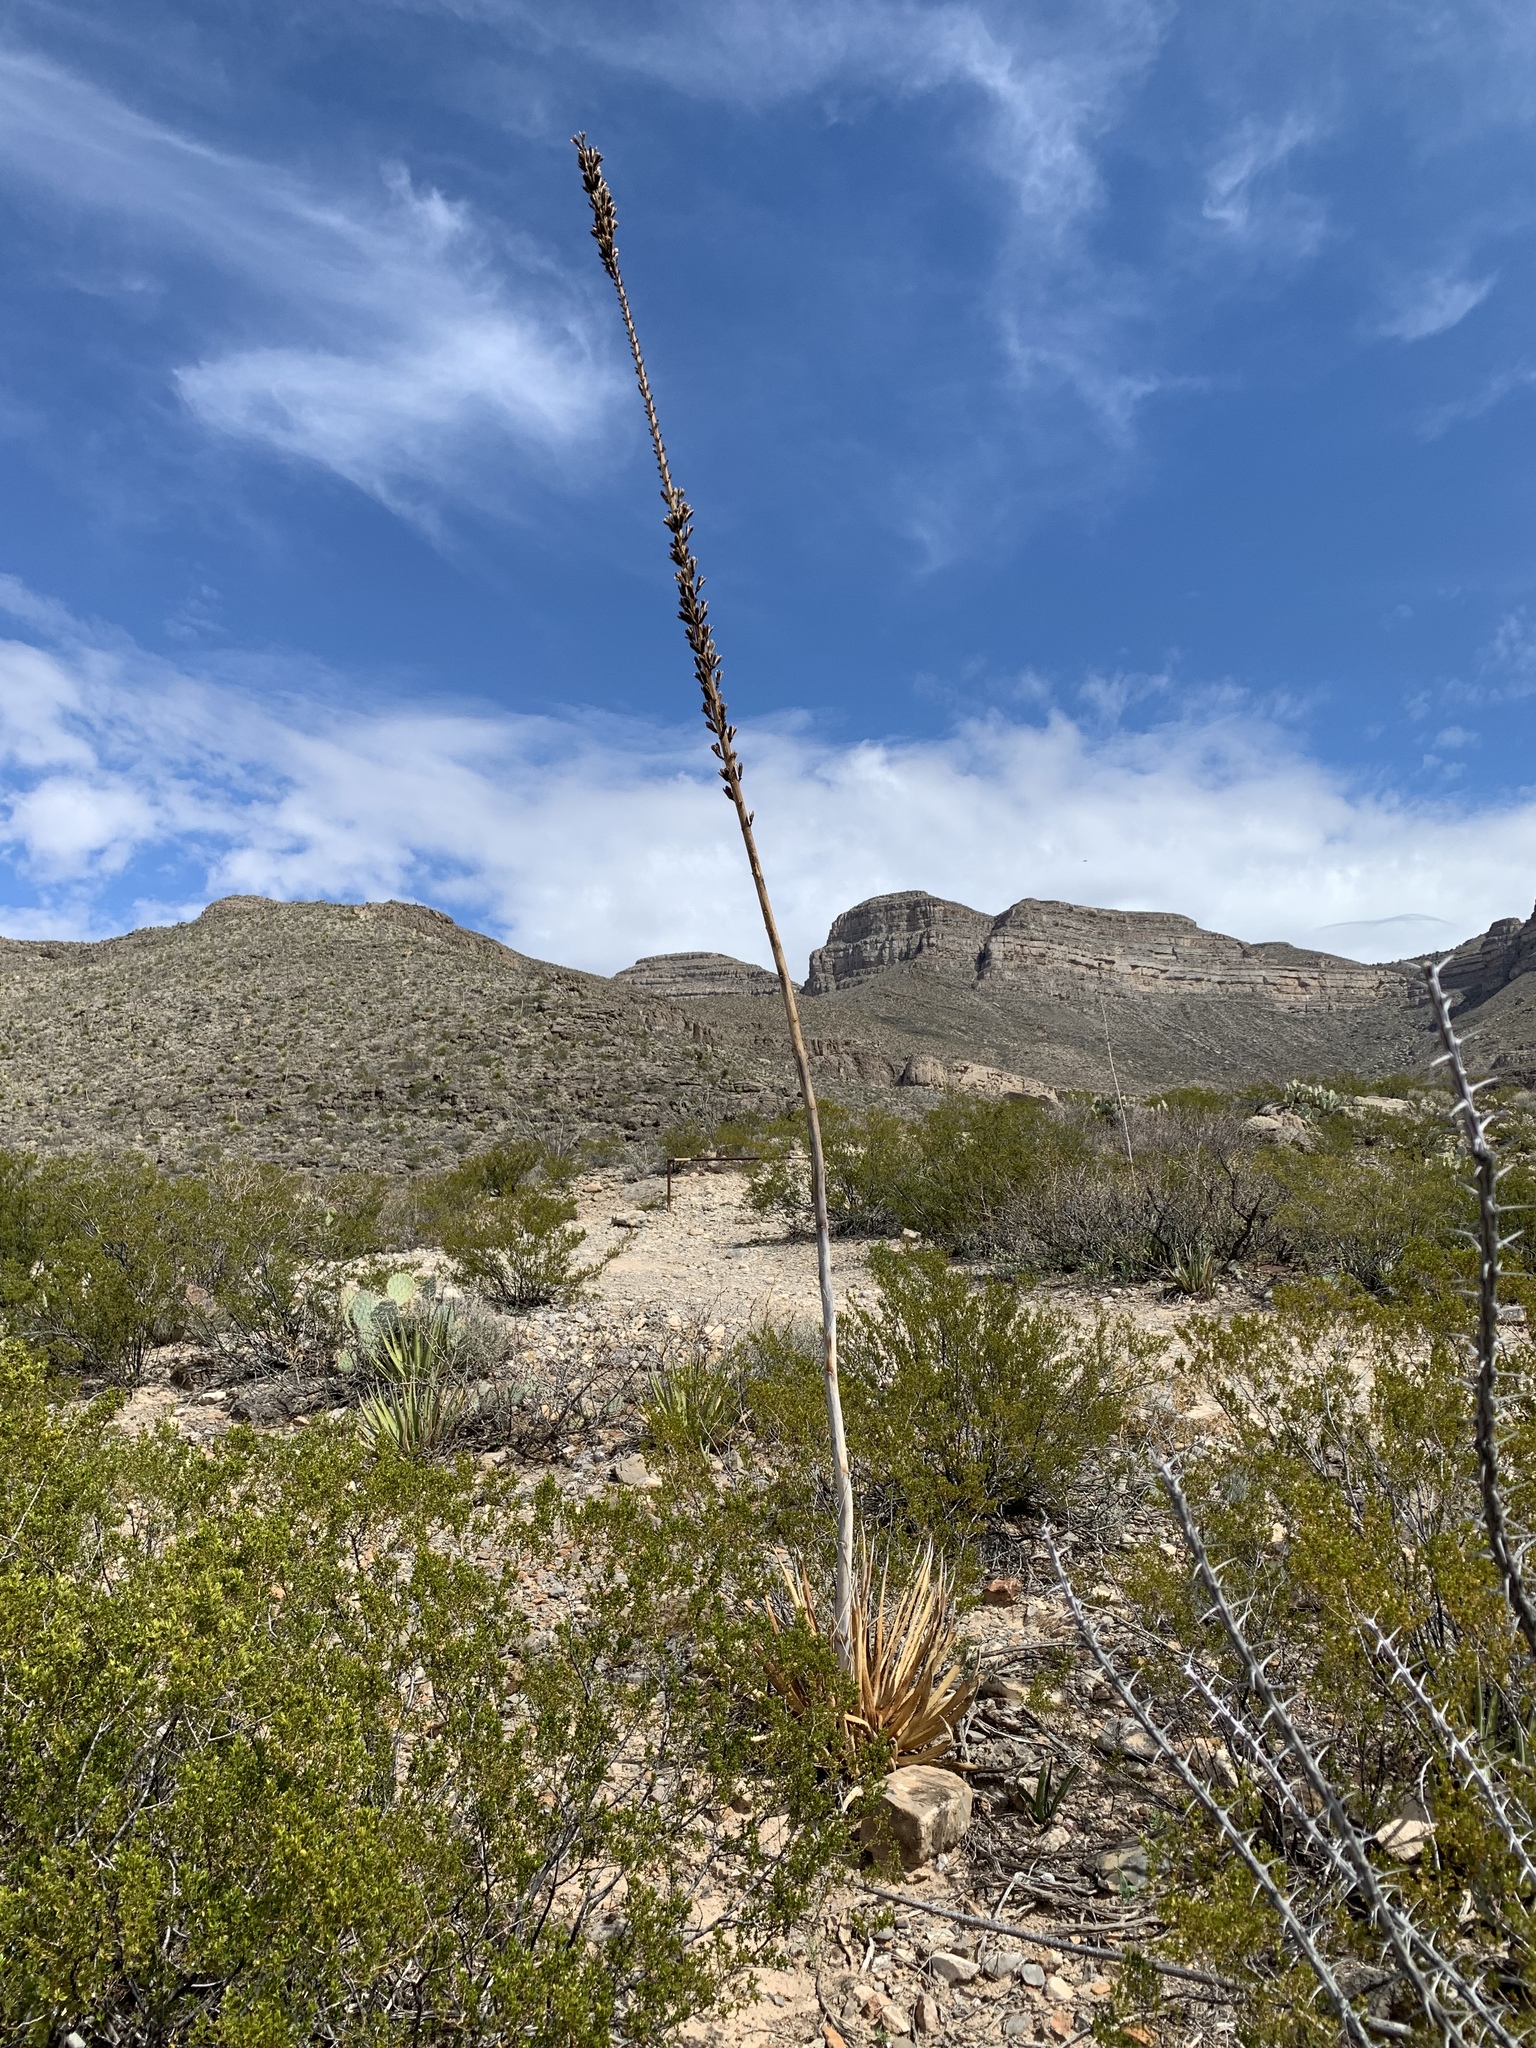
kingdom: Plantae
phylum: Tracheophyta
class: Liliopsida
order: Asparagales
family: Asparagaceae
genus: Agave
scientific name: Agave lechuguilla
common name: Lecheguilla agave
